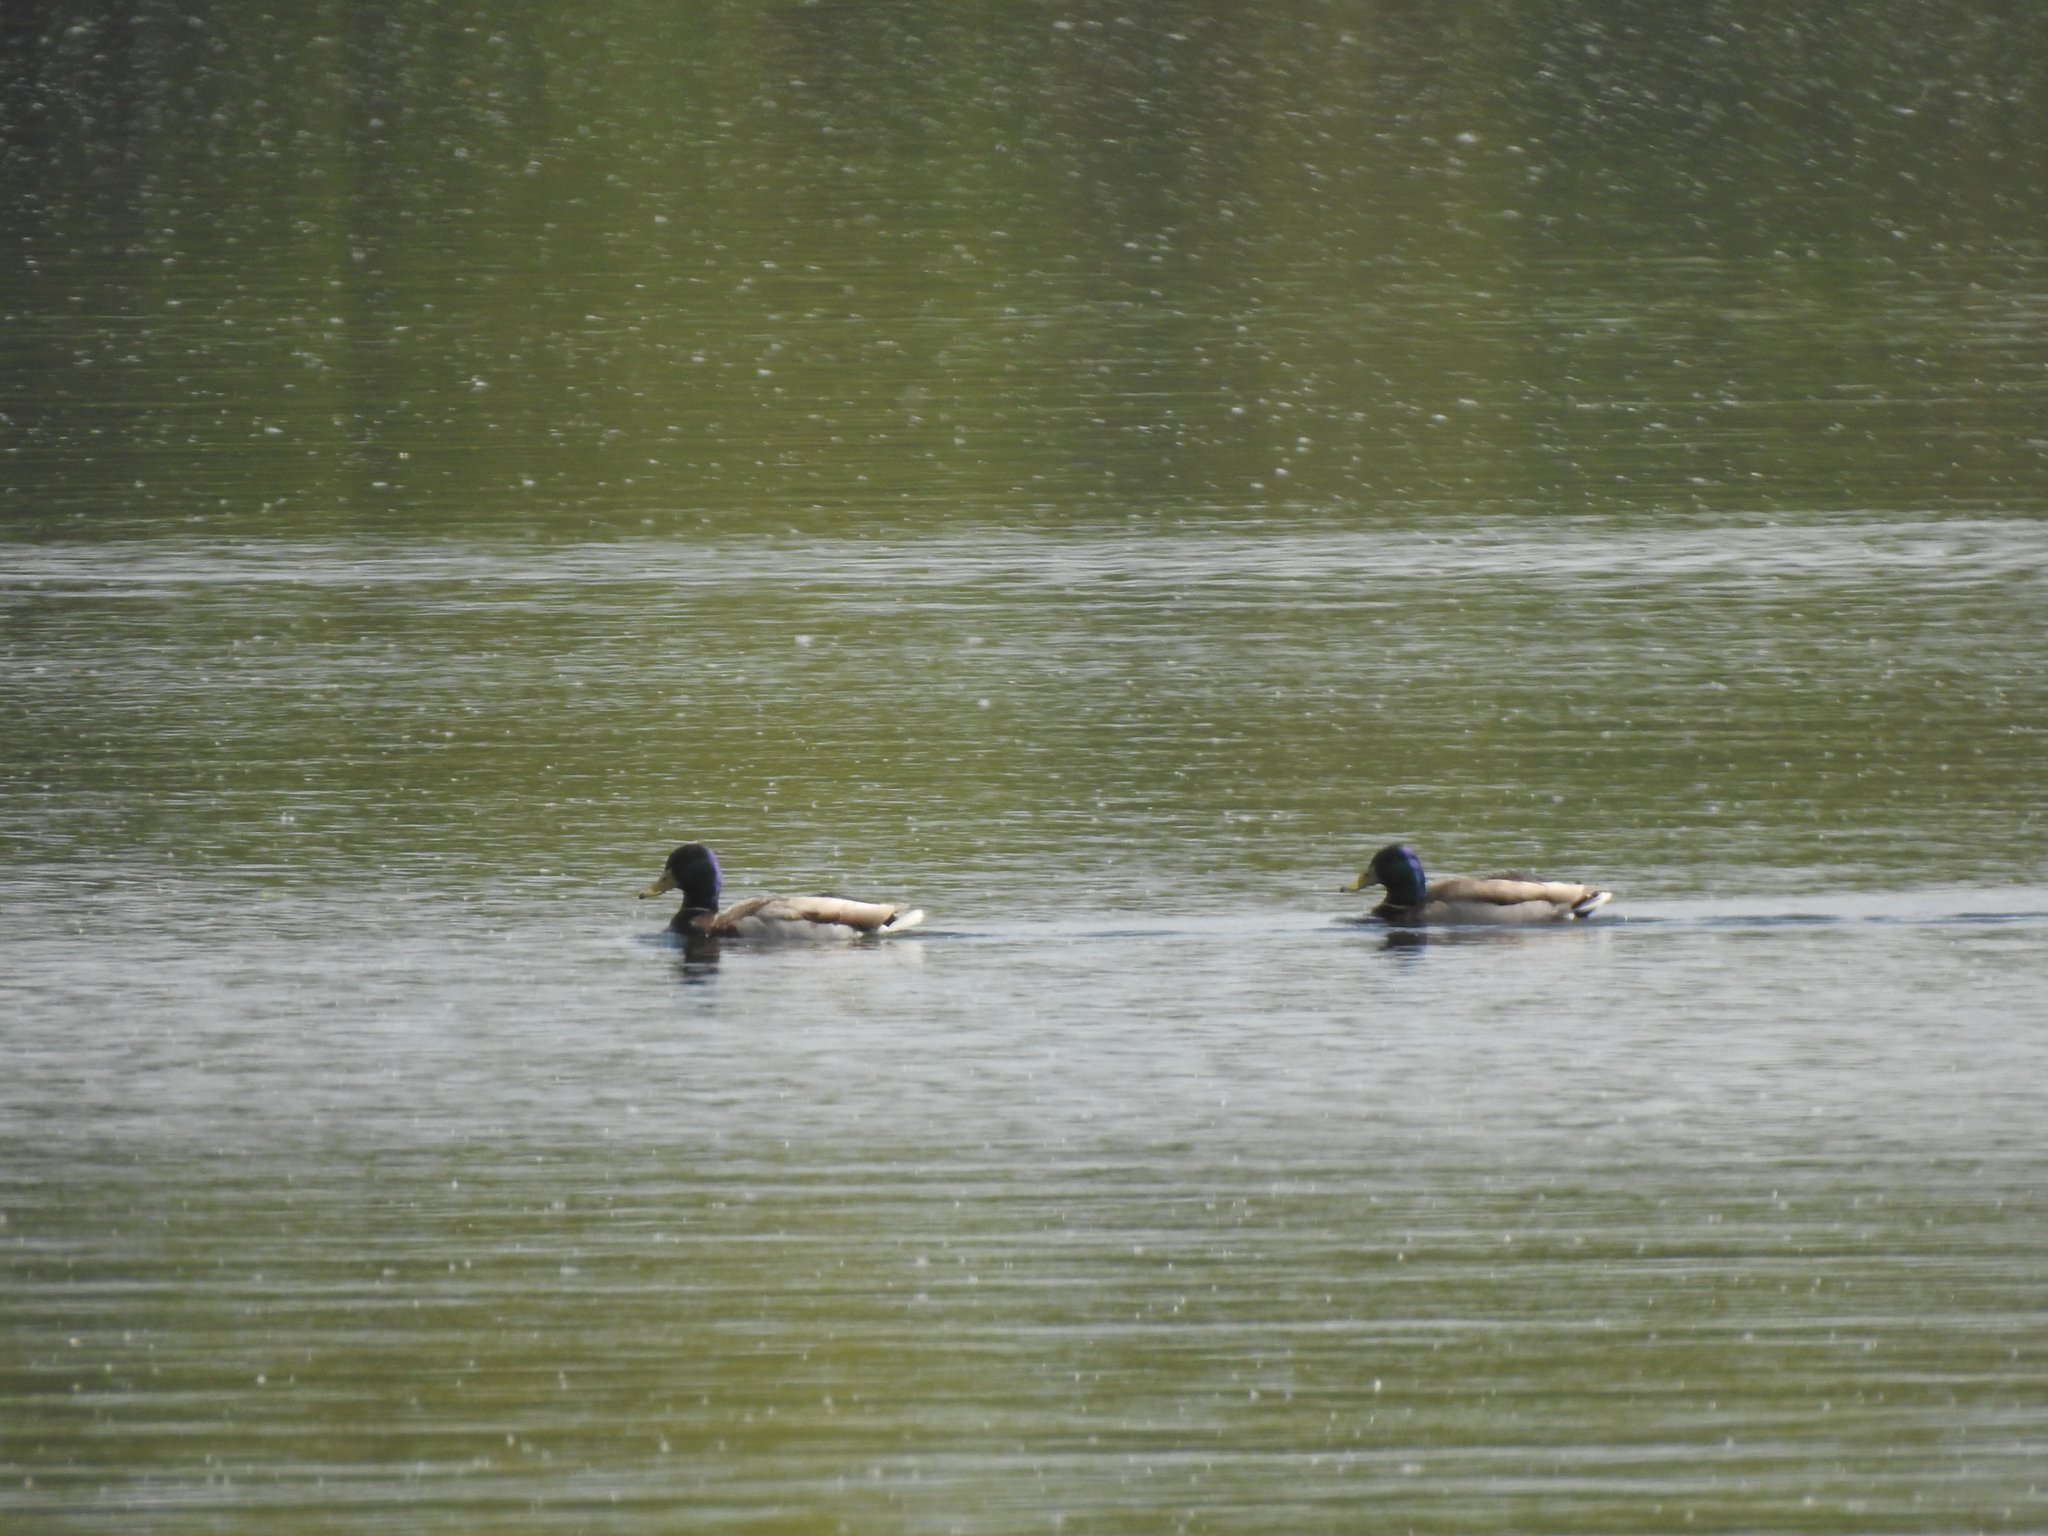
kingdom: Animalia
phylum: Chordata
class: Aves
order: Anseriformes
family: Anatidae
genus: Anas
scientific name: Anas platyrhynchos
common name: Mallard
